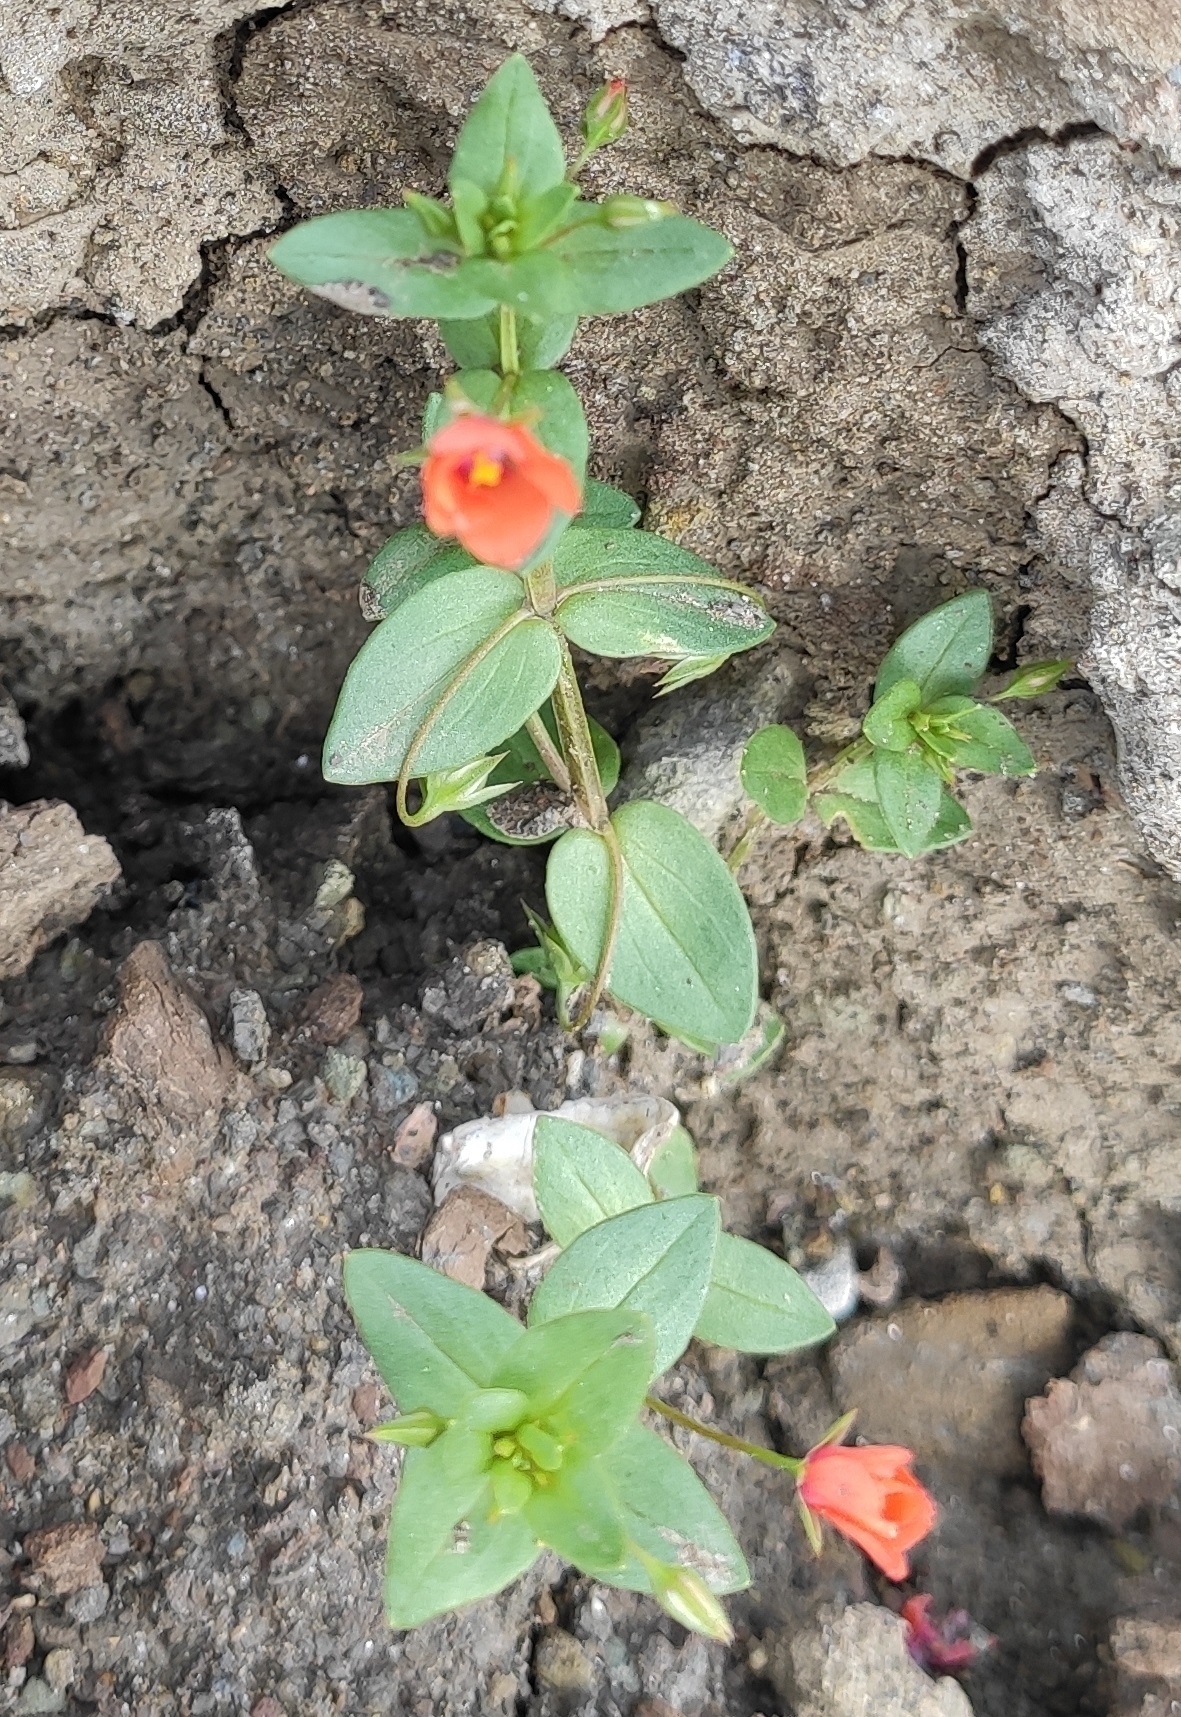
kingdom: Plantae
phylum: Tracheophyta
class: Magnoliopsida
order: Ericales
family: Primulaceae
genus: Lysimachia
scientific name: Lysimachia arvensis
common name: Scarlet pimpernel
